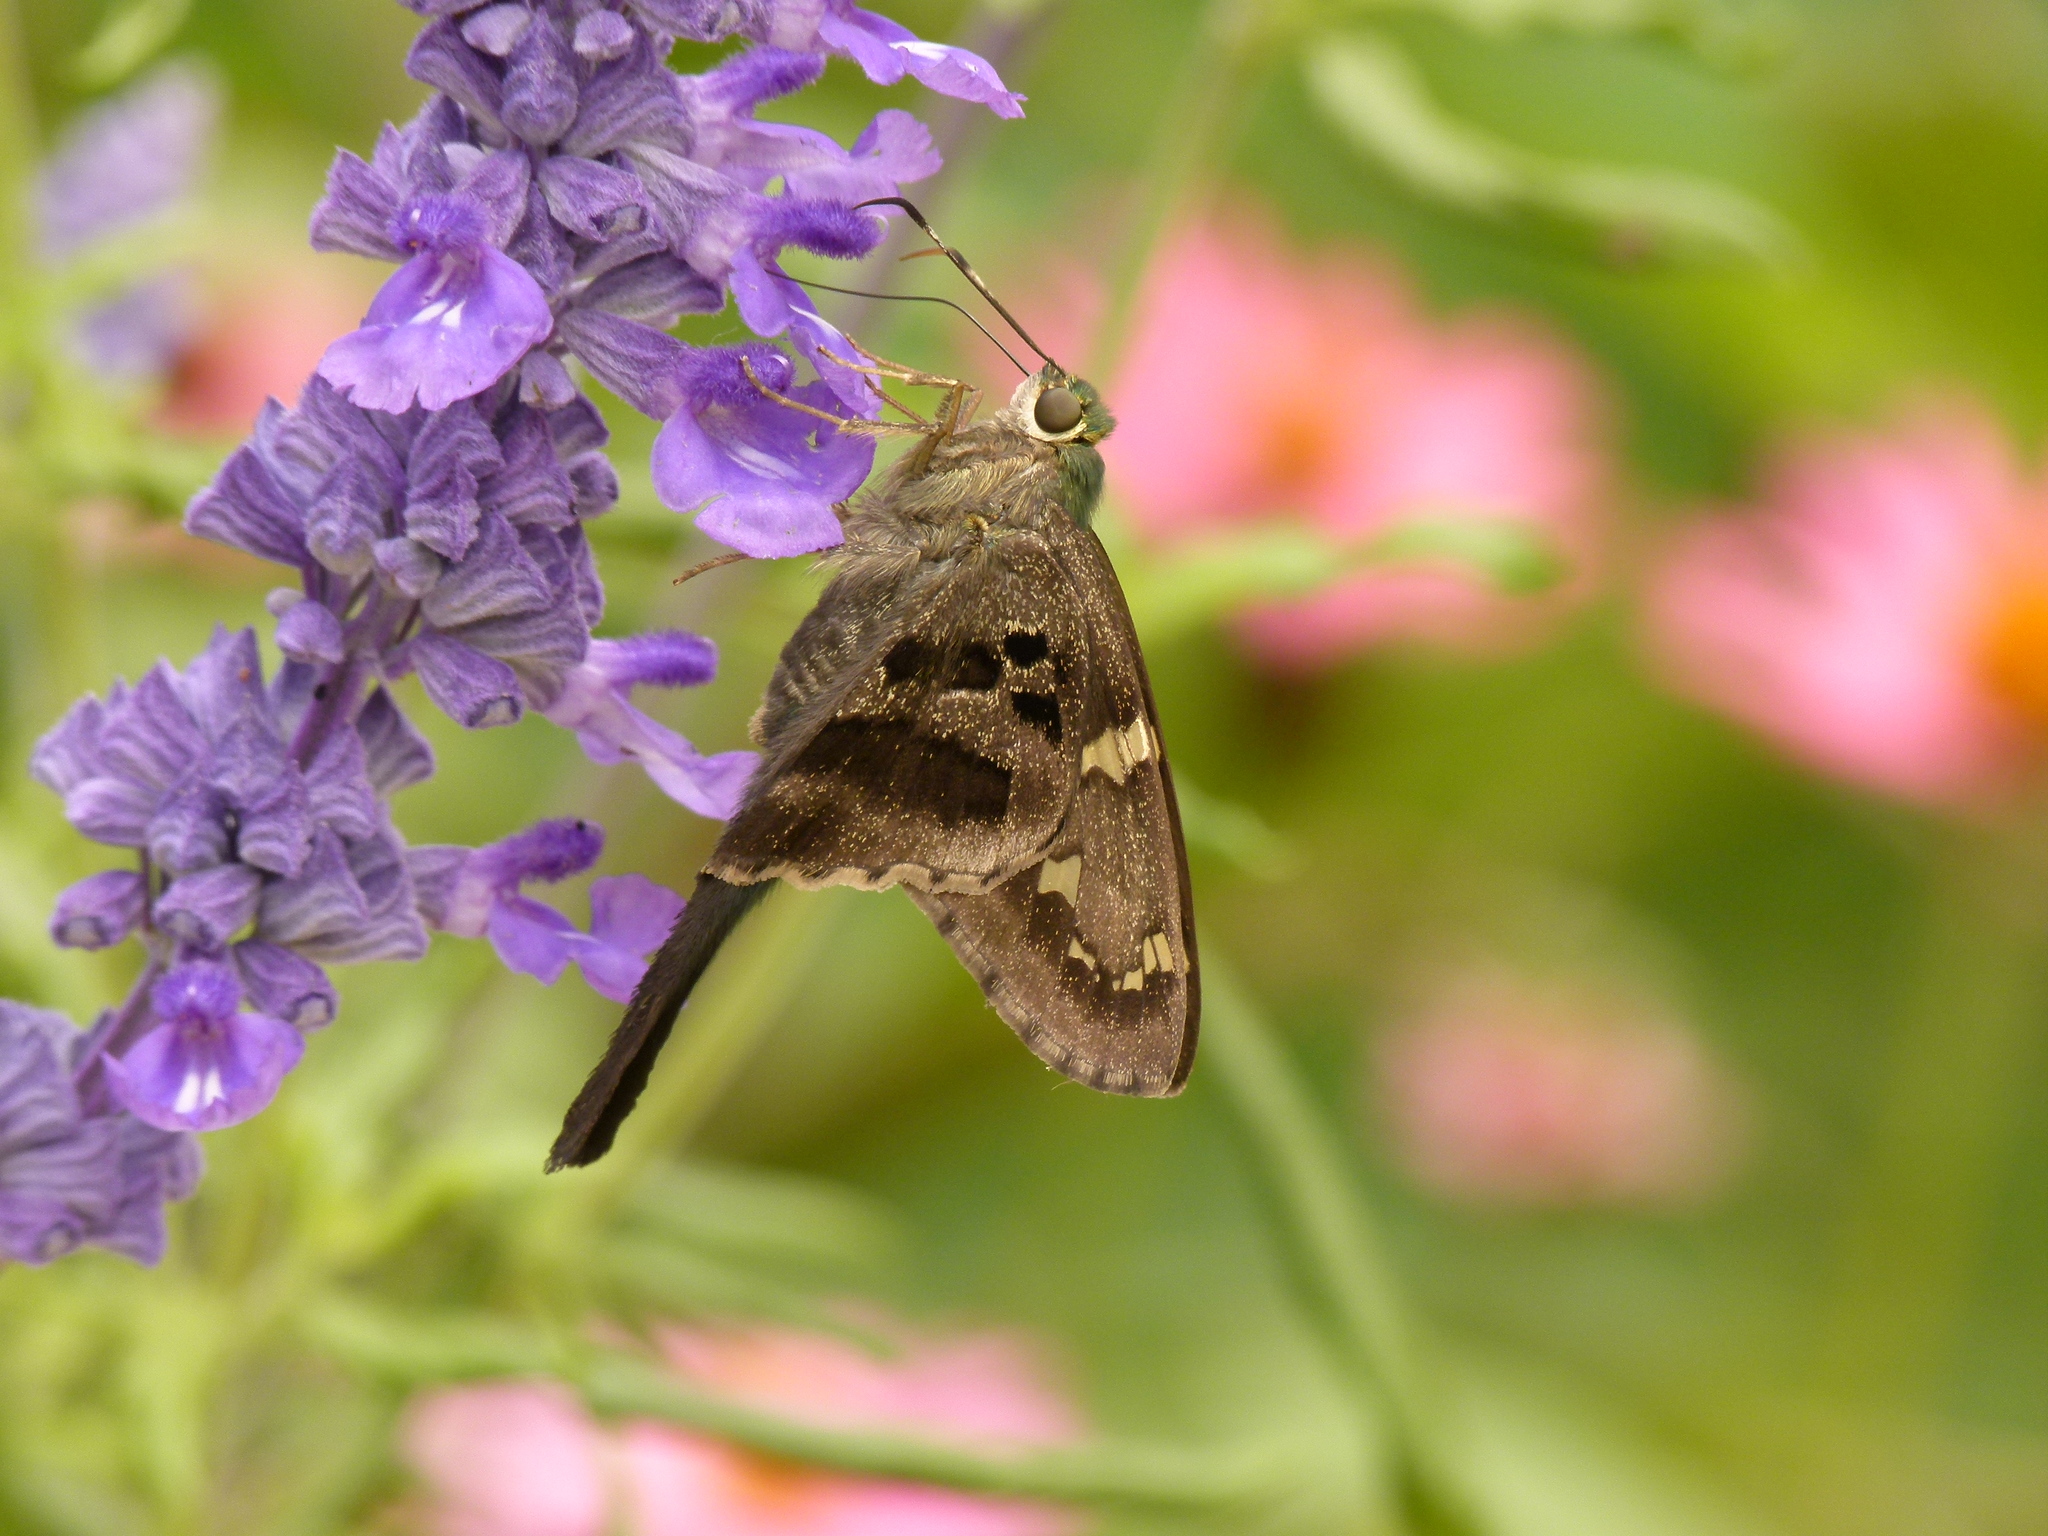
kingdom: Animalia
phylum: Arthropoda
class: Insecta
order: Lepidoptera
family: Hesperiidae
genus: Urbanus
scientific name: Urbanus proteus
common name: Long-tailed skipper
